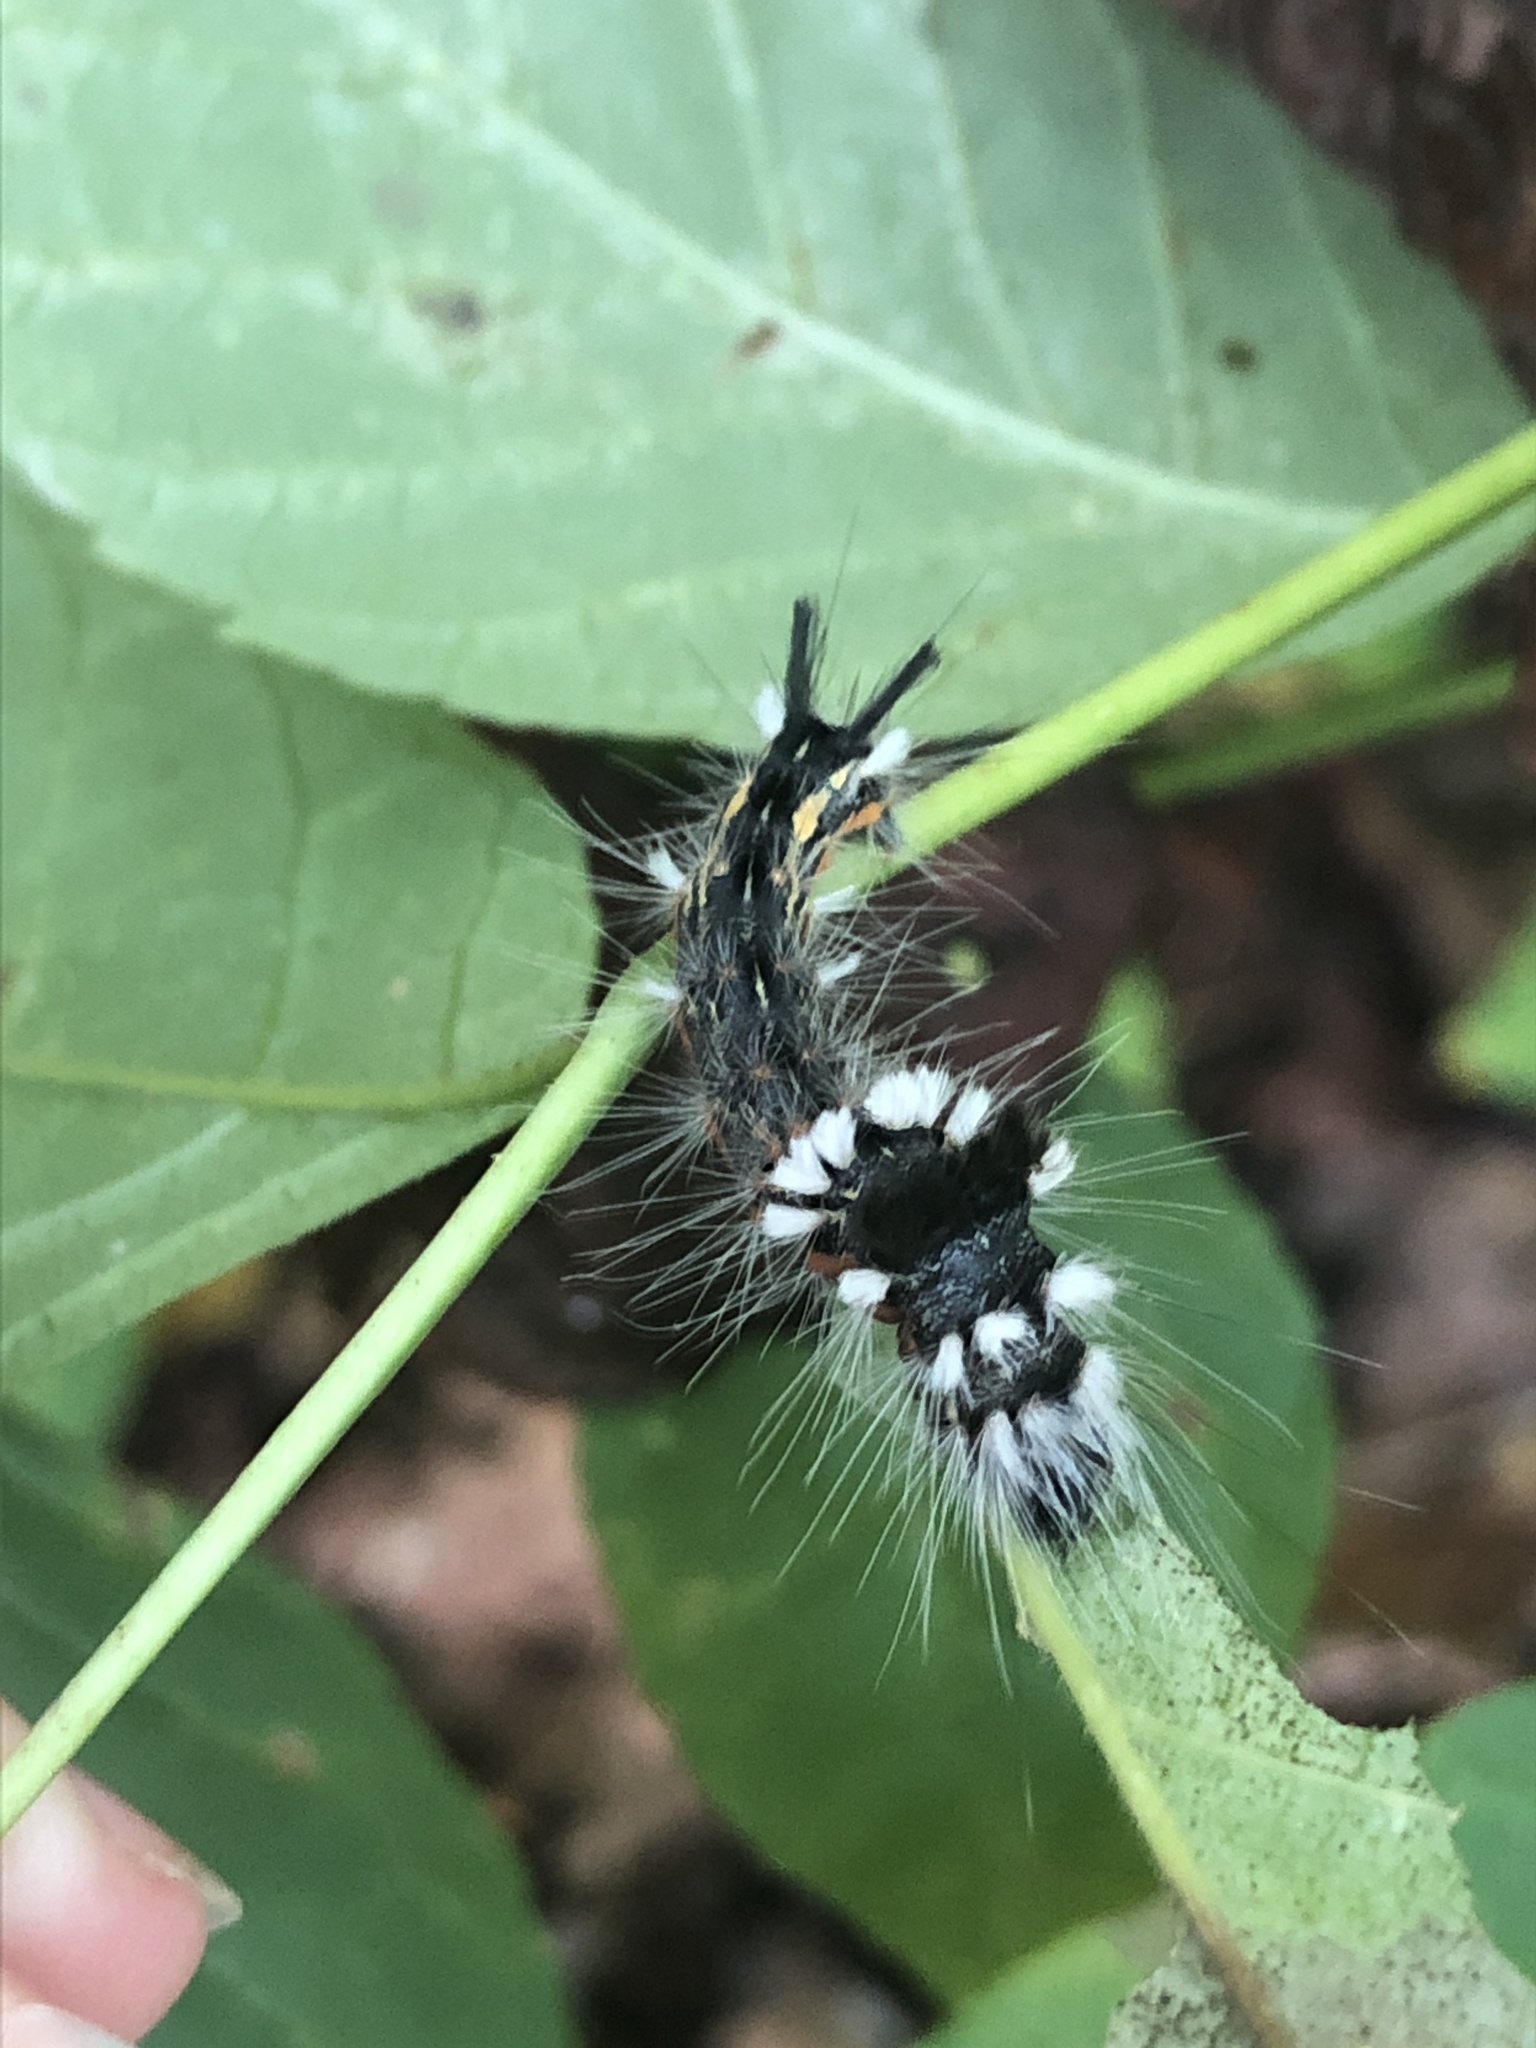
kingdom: Animalia
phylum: Arthropoda
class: Insecta
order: Lepidoptera
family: Noctuidae
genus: Acronicta
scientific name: Acronicta impleta
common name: Powdered dagger
